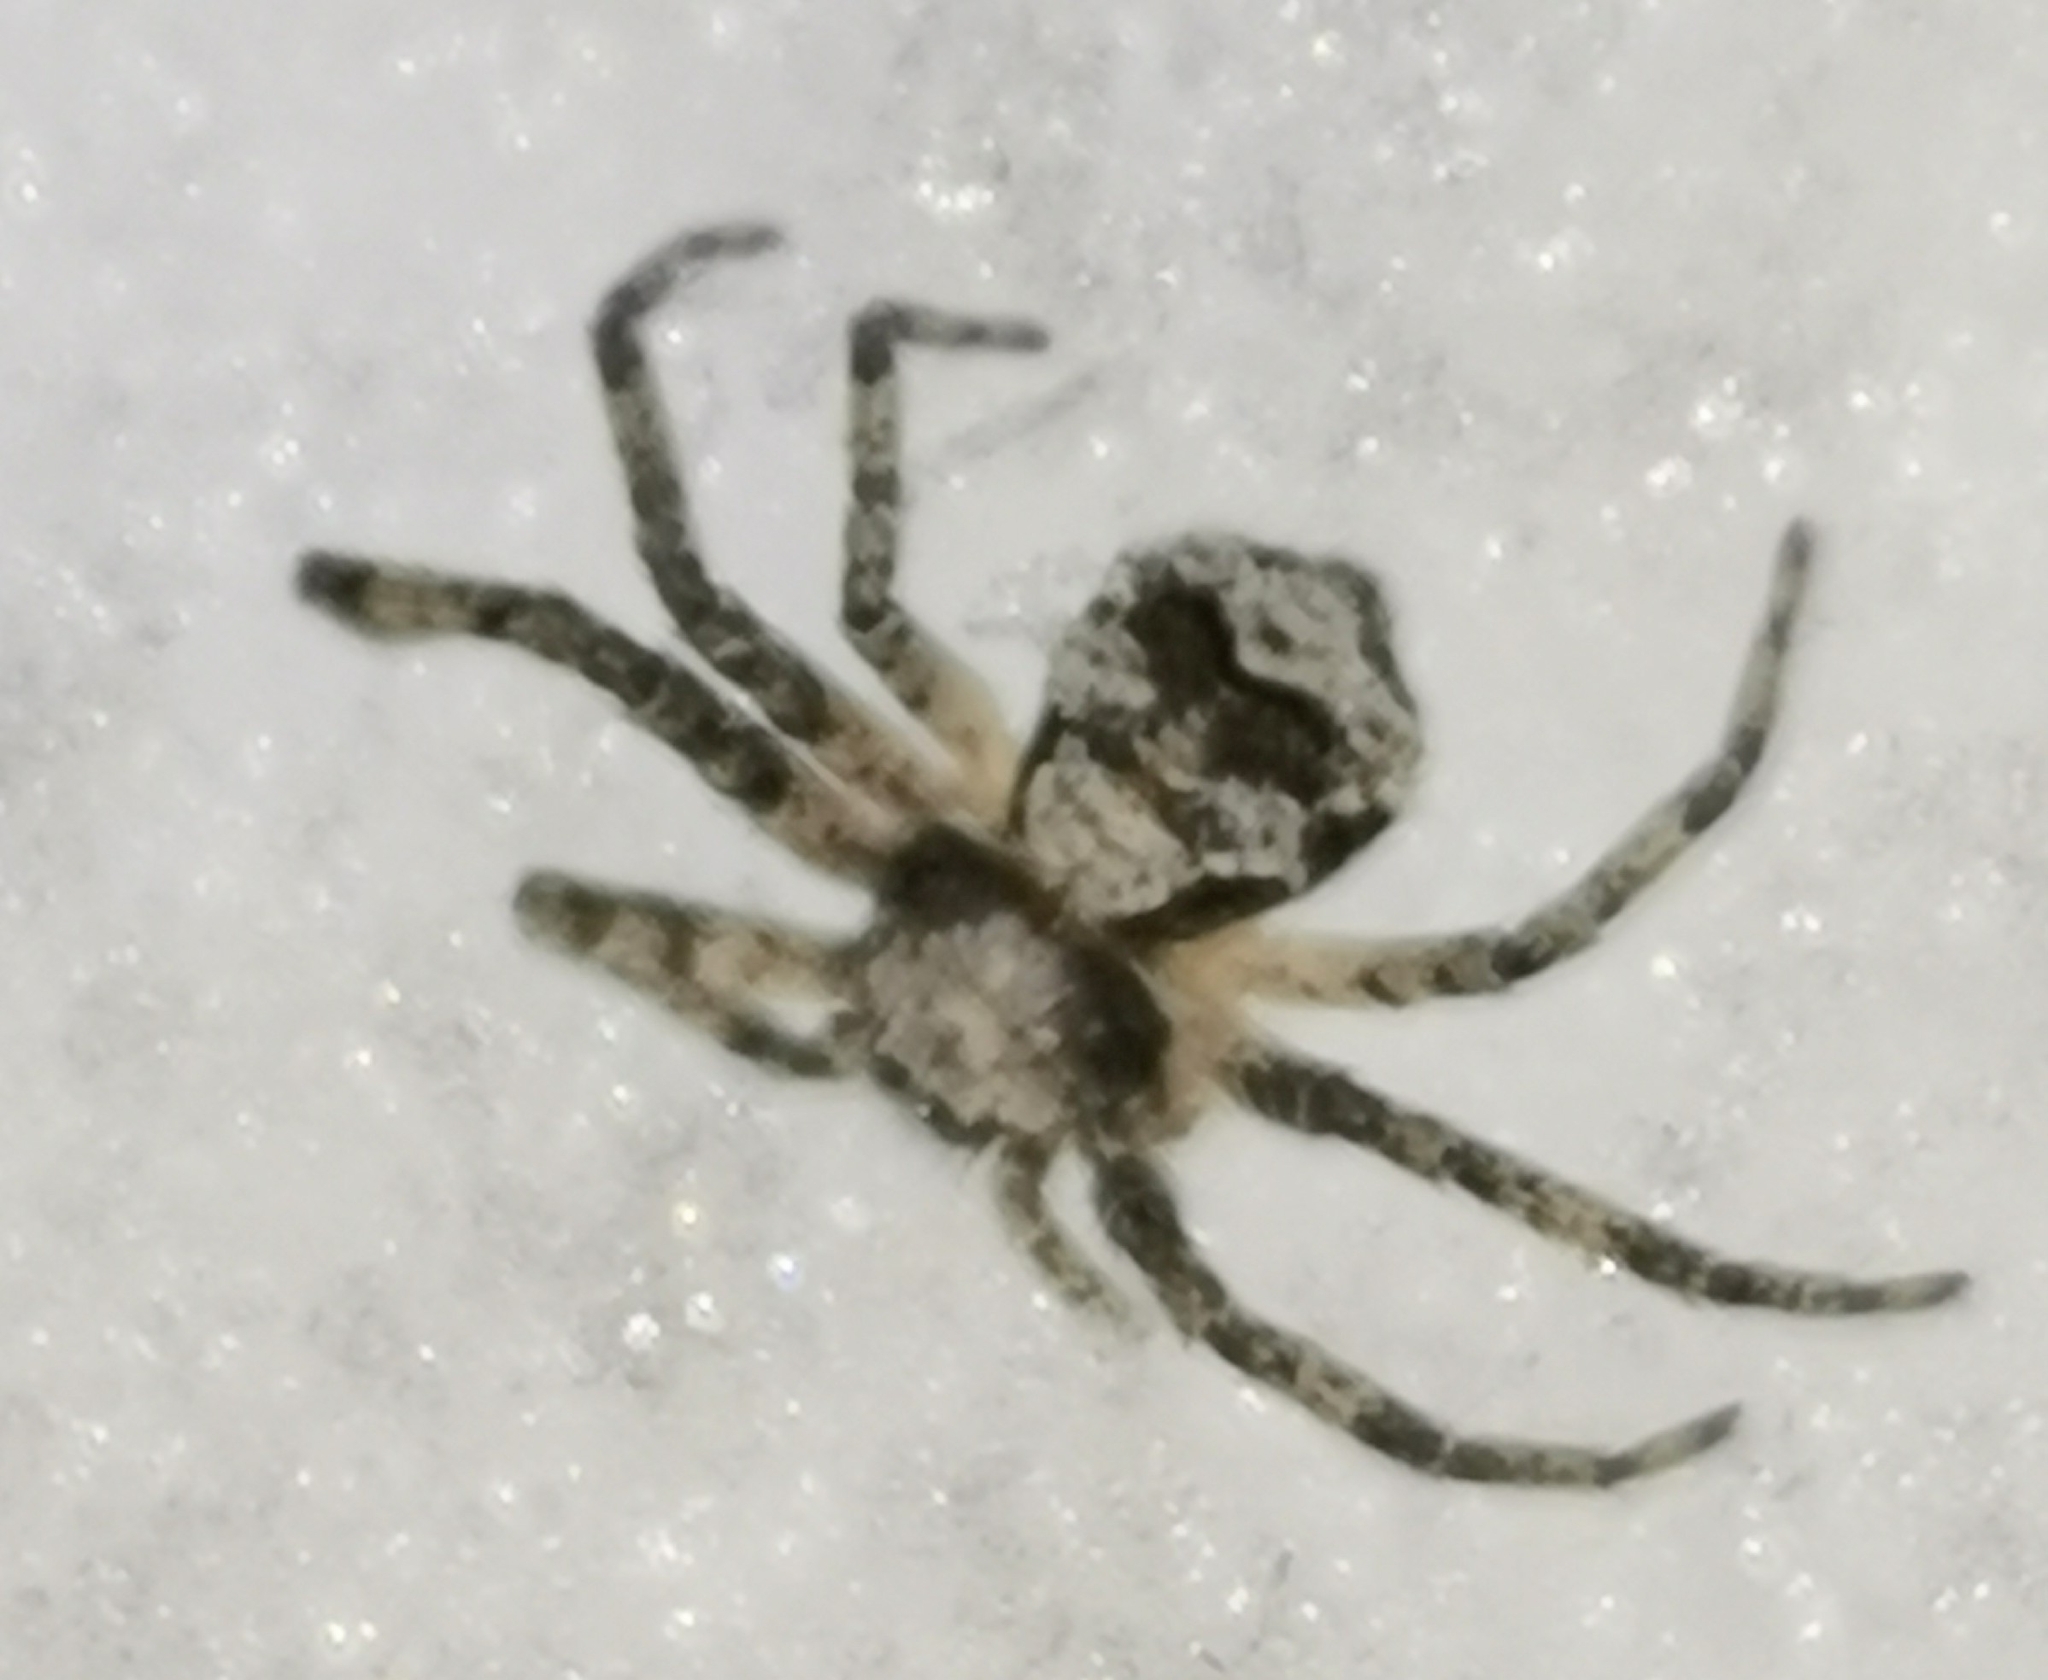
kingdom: Animalia
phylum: Arthropoda
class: Arachnida
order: Araneae
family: Philodromidae
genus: Philodromus
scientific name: Philodromus poecilus
